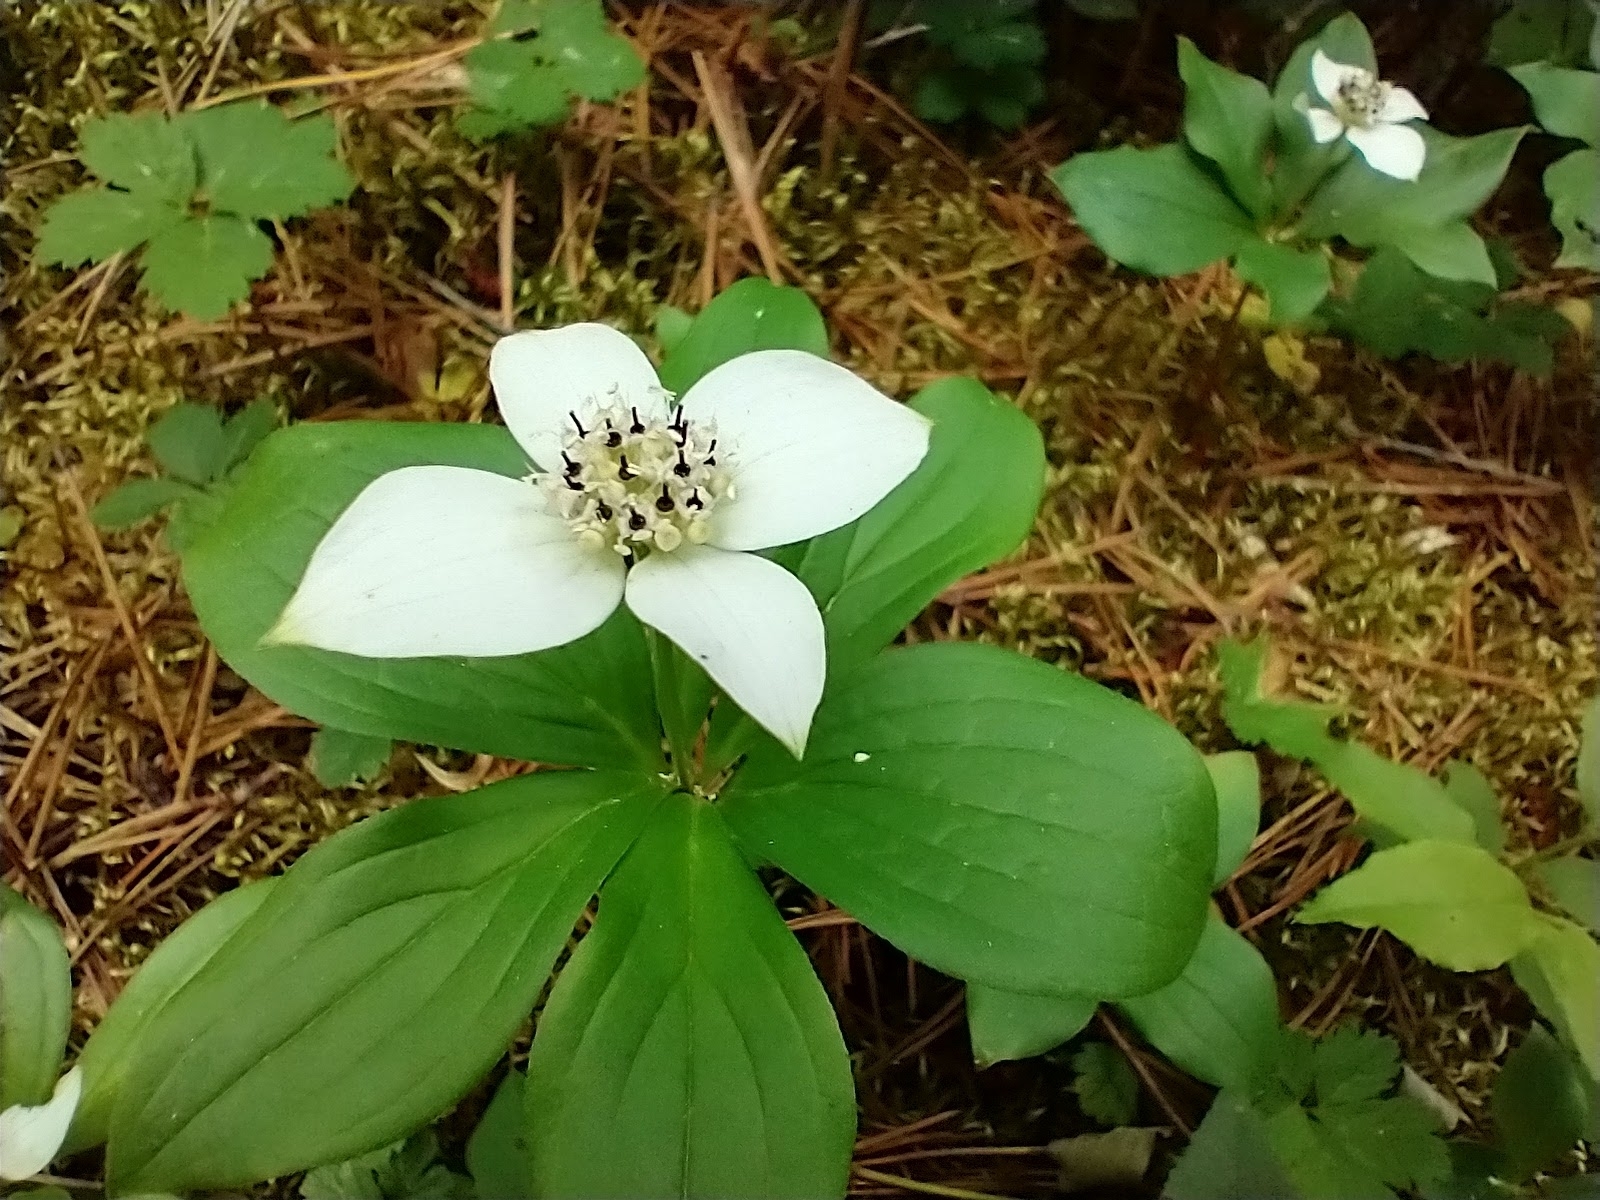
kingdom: Plantae
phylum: Tracheophyta
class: Magnoliopsida
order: Cornales
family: Cornaceae
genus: Cornus
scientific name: Cornus canadensis
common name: Creeping dogwood
